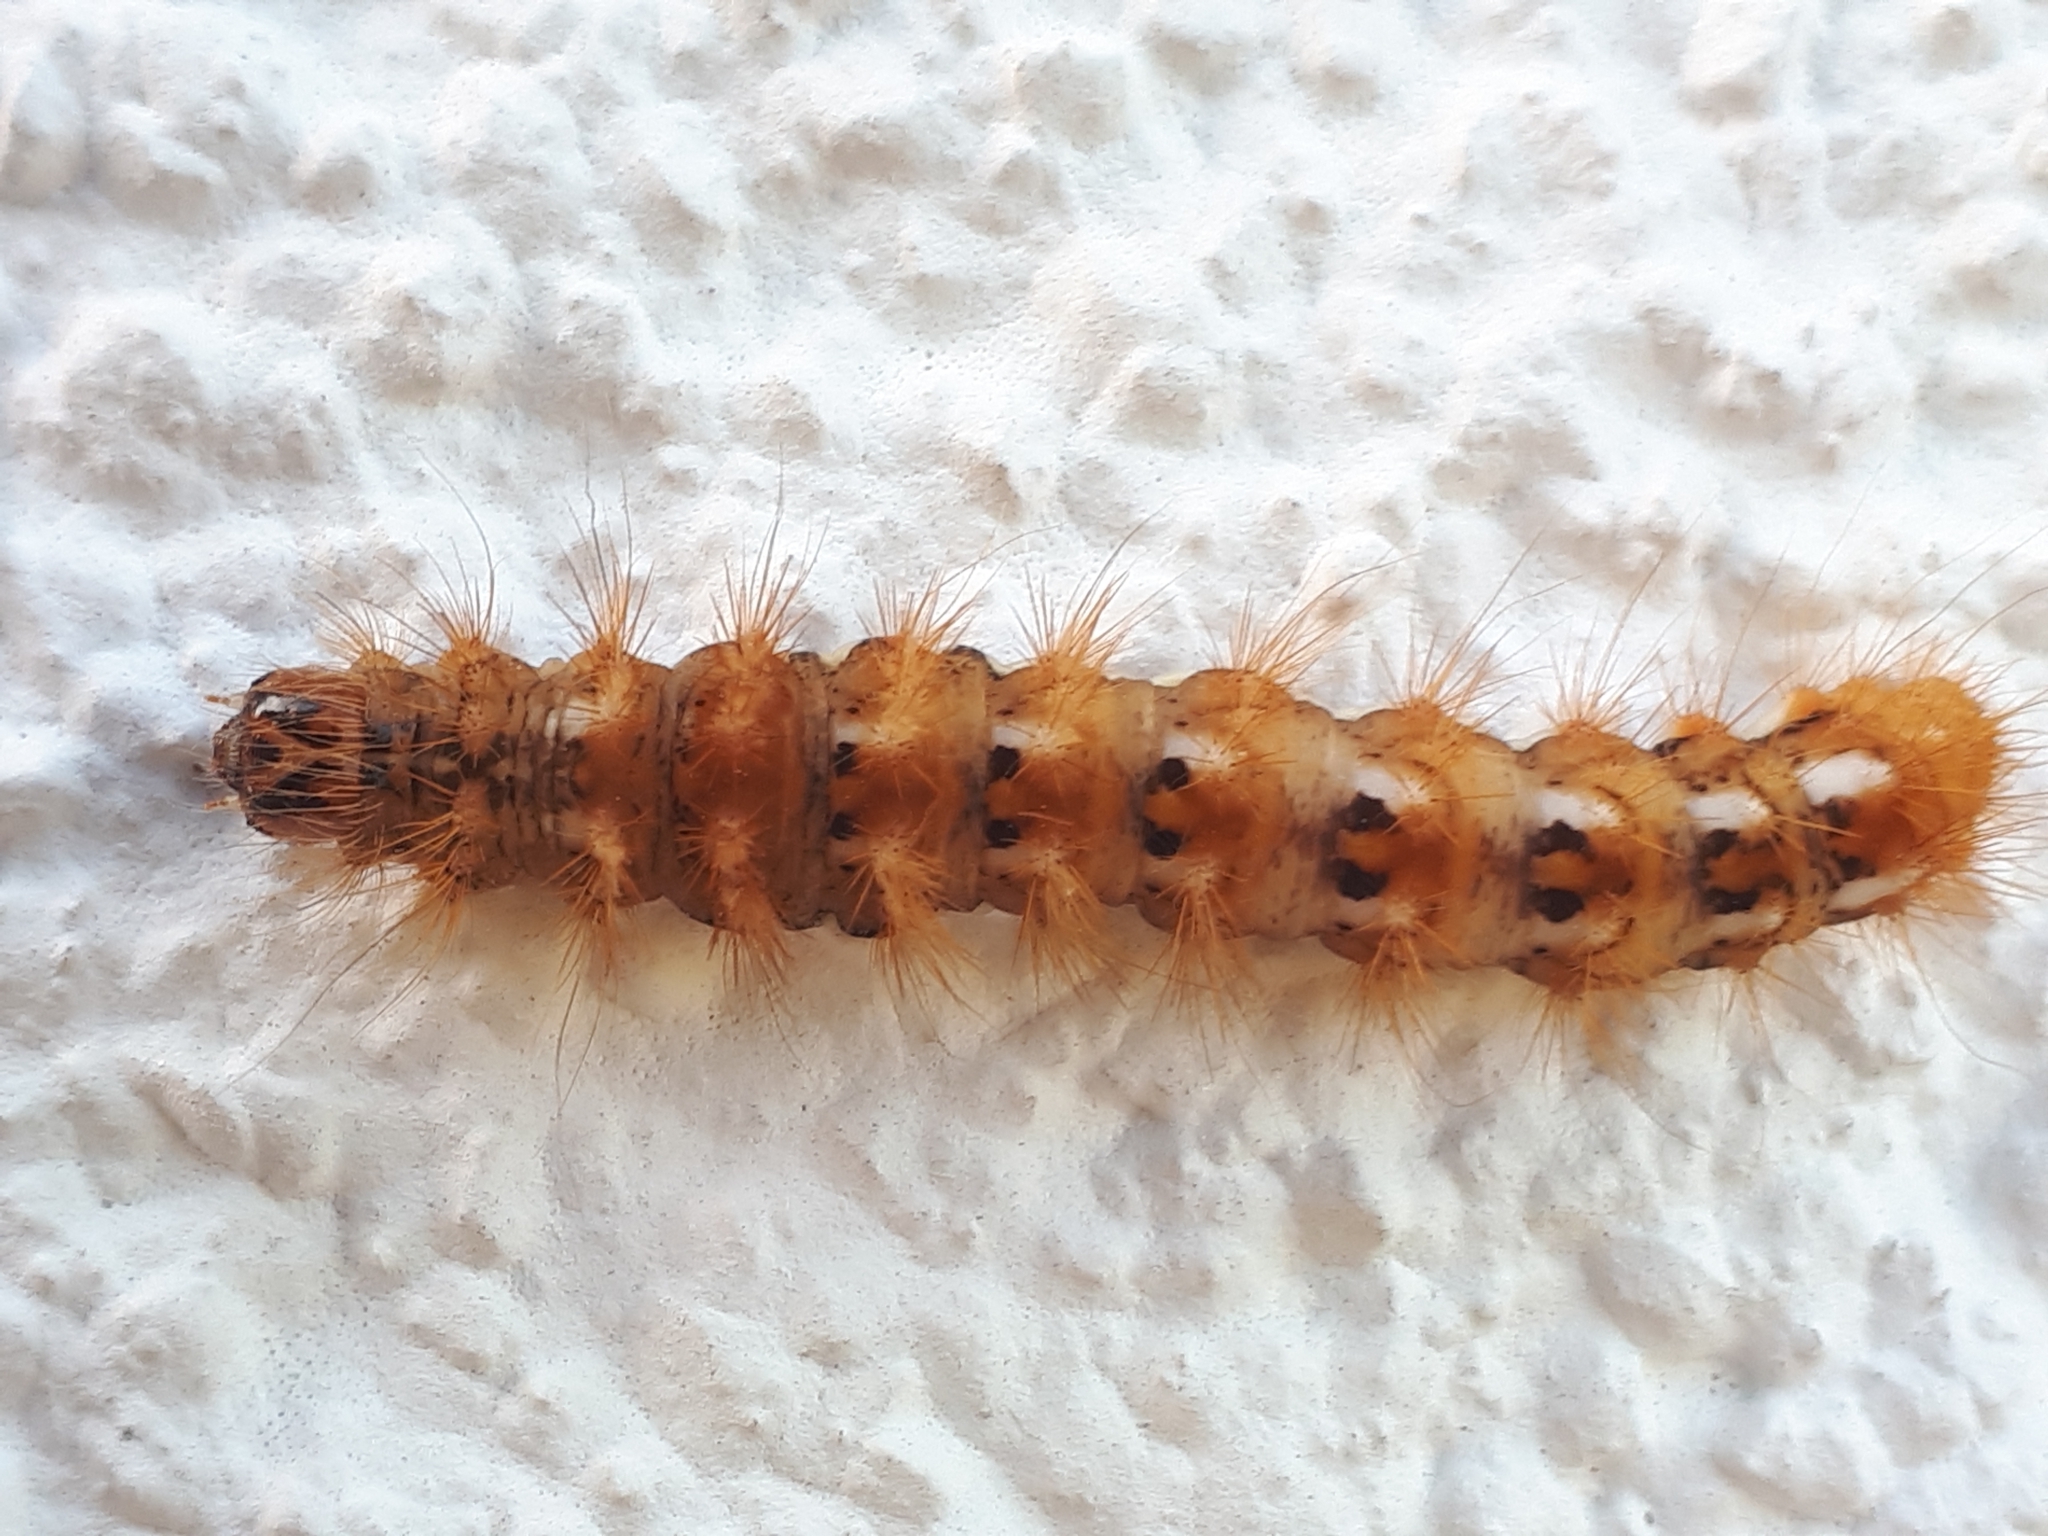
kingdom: Animalia
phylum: Arthropoda
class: Insecta
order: Lepidoptera
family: Noctuidae
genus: Acronicta
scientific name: Acronicta rumicis
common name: Knot grass
